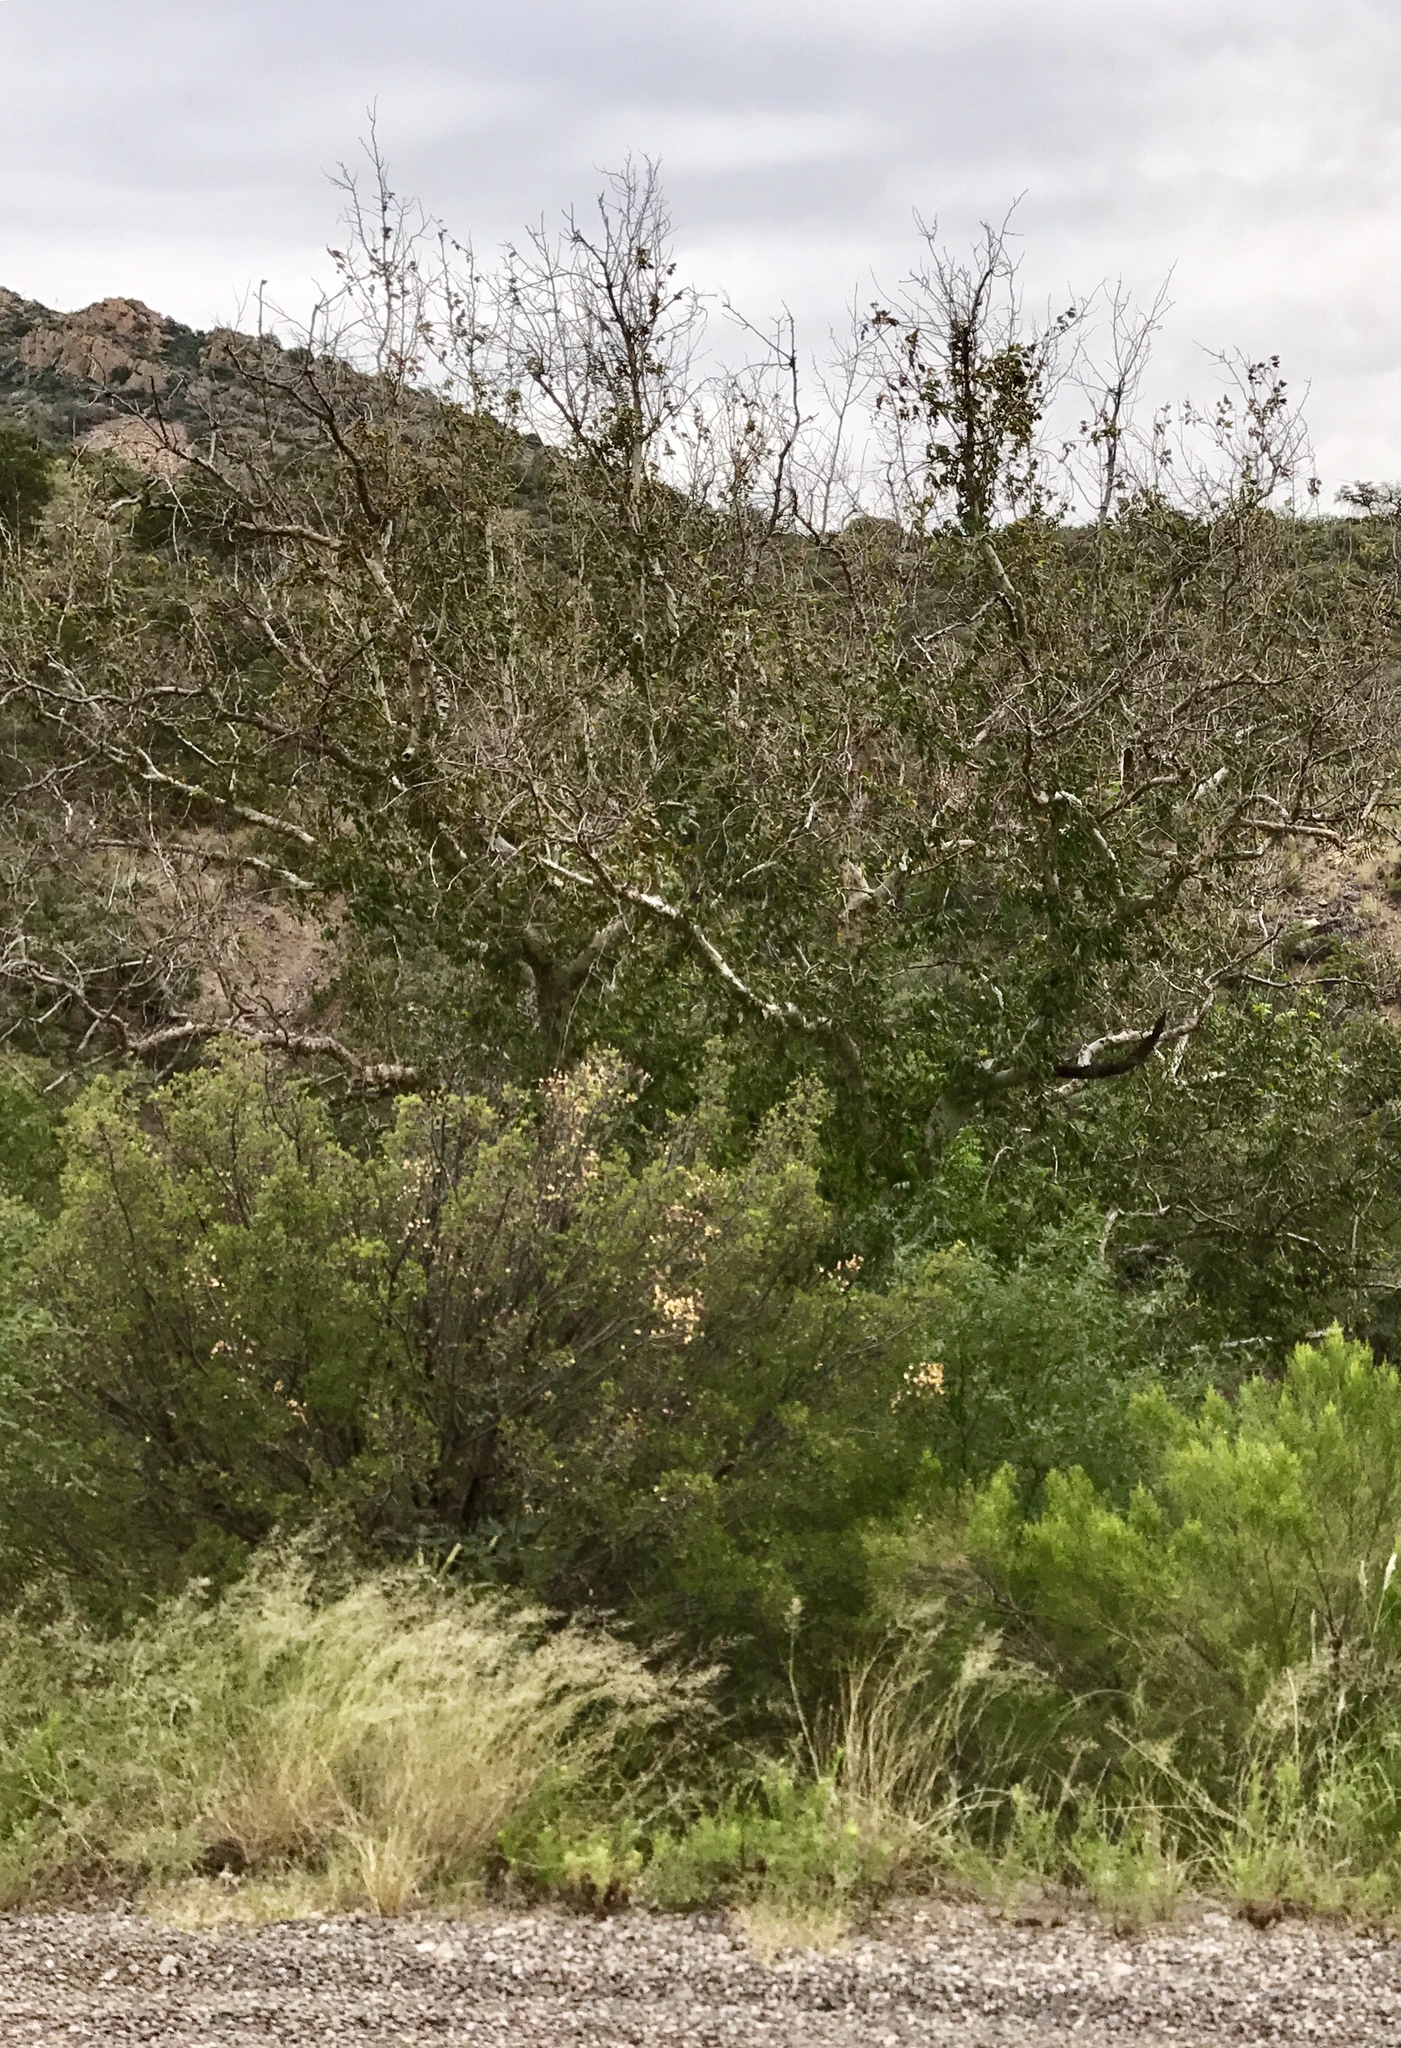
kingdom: Plantae
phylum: Tracheophyta
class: Magnoliopsida
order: Proteales
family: Platanaceae
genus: Platanus
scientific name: Platanus wrightii
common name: Arizona sycamore
